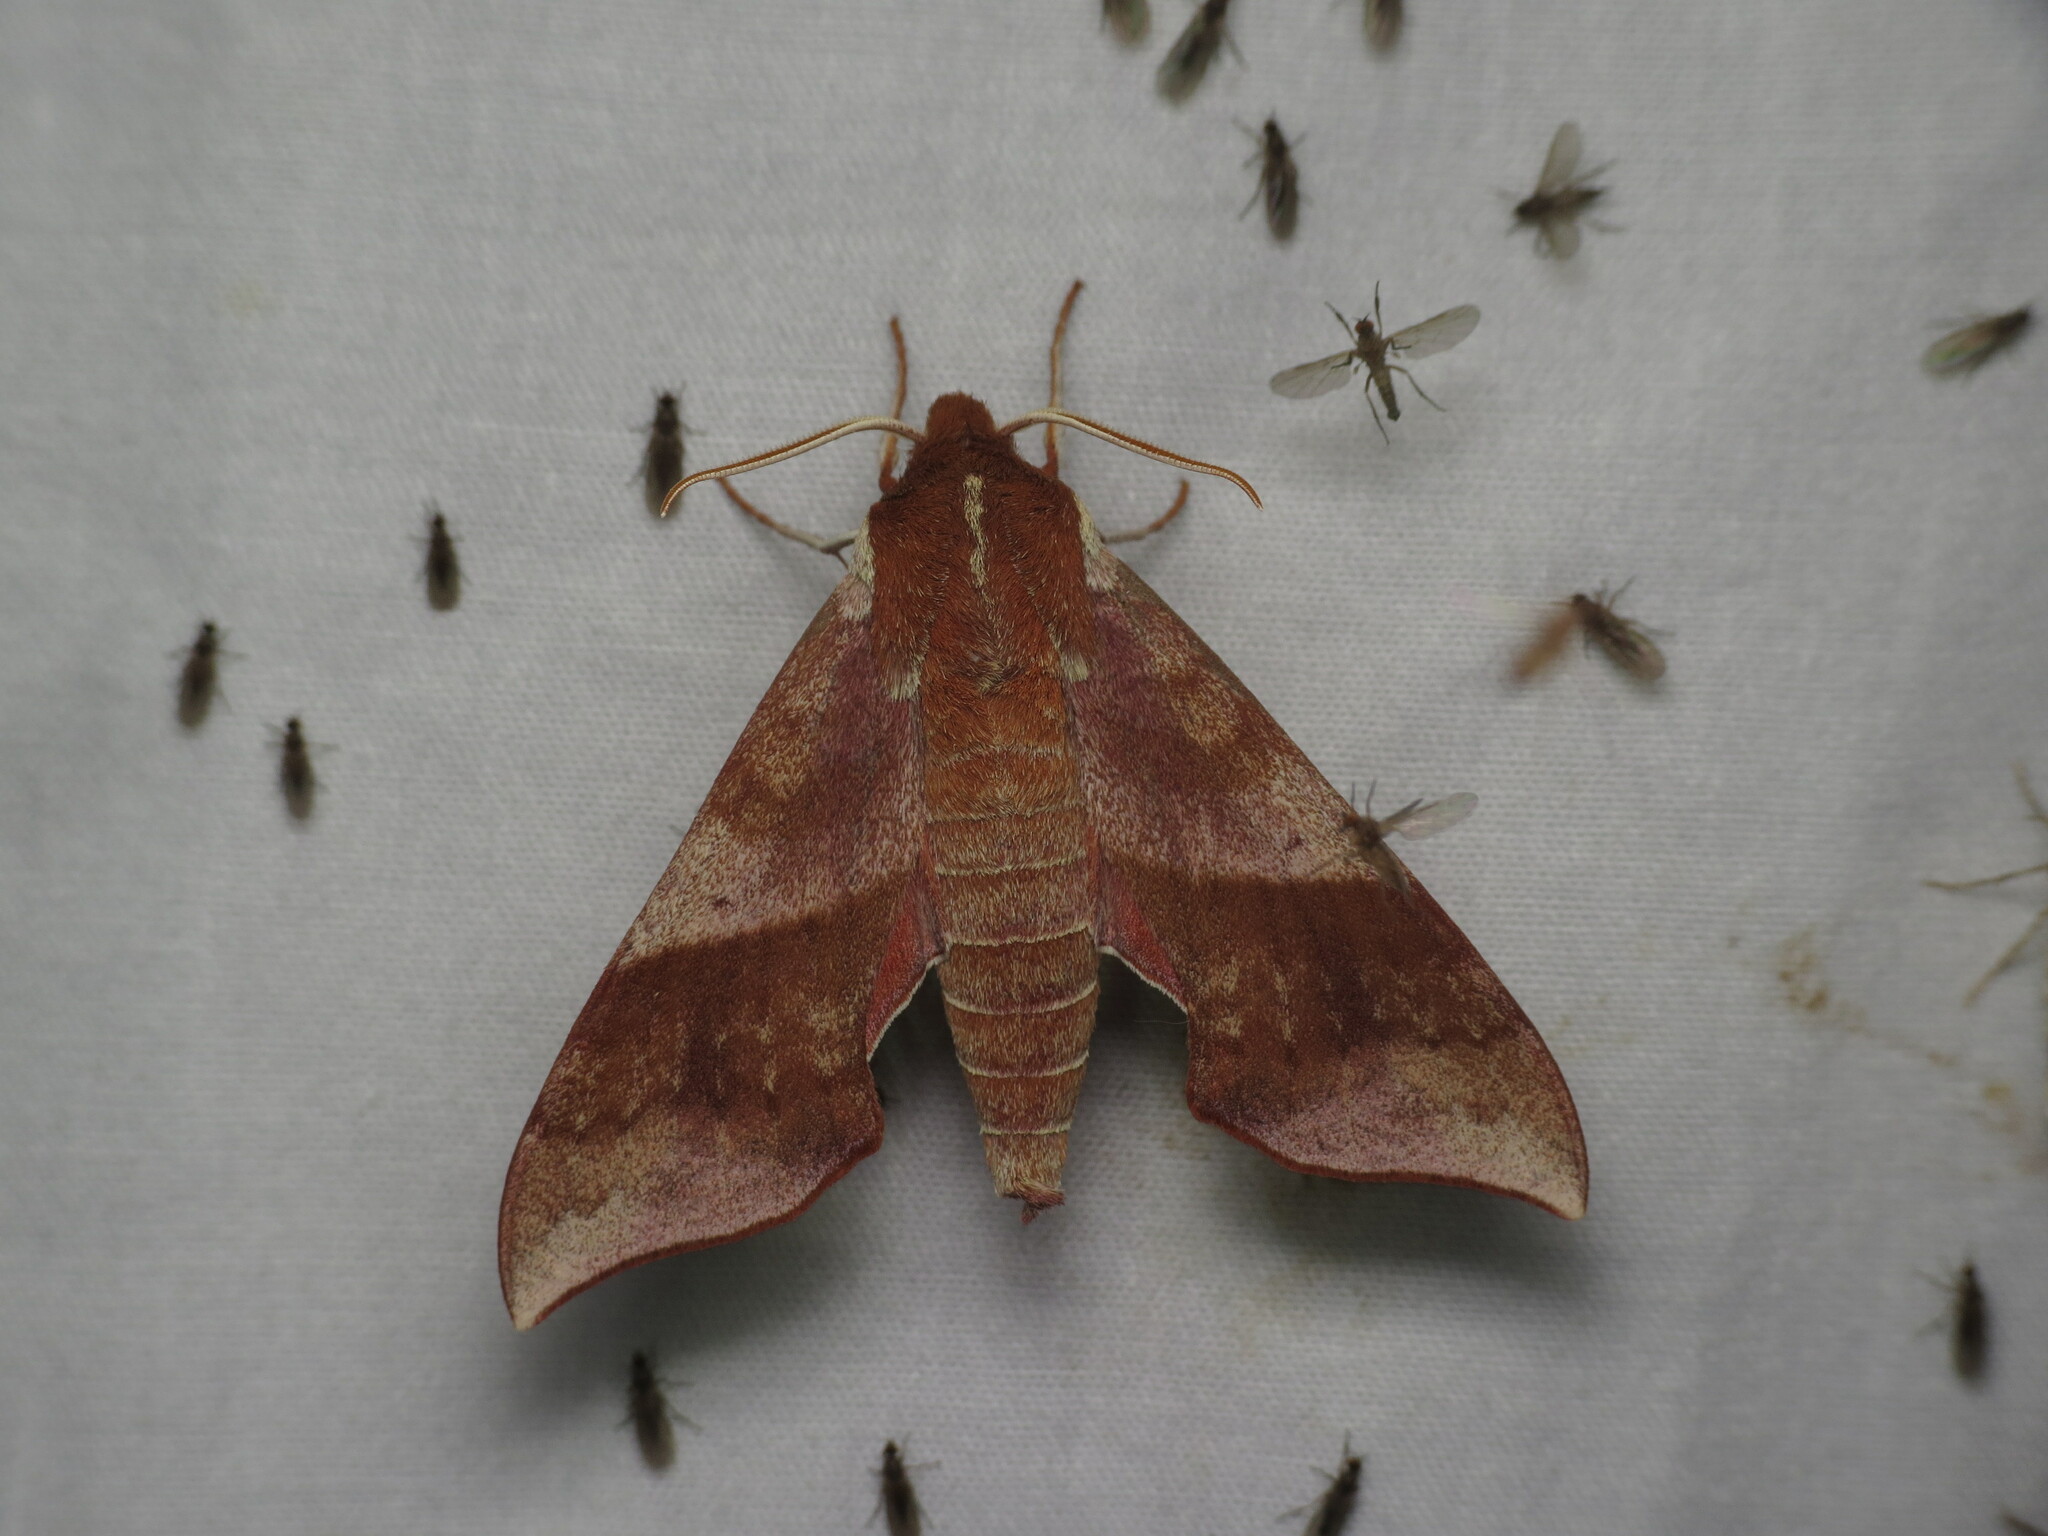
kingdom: Animalia
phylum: Arthropoda
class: Insecta
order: Lepidoptera
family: Sphingidae
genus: Darapsa
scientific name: Darapsa choerilus
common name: Azalea sphinx
